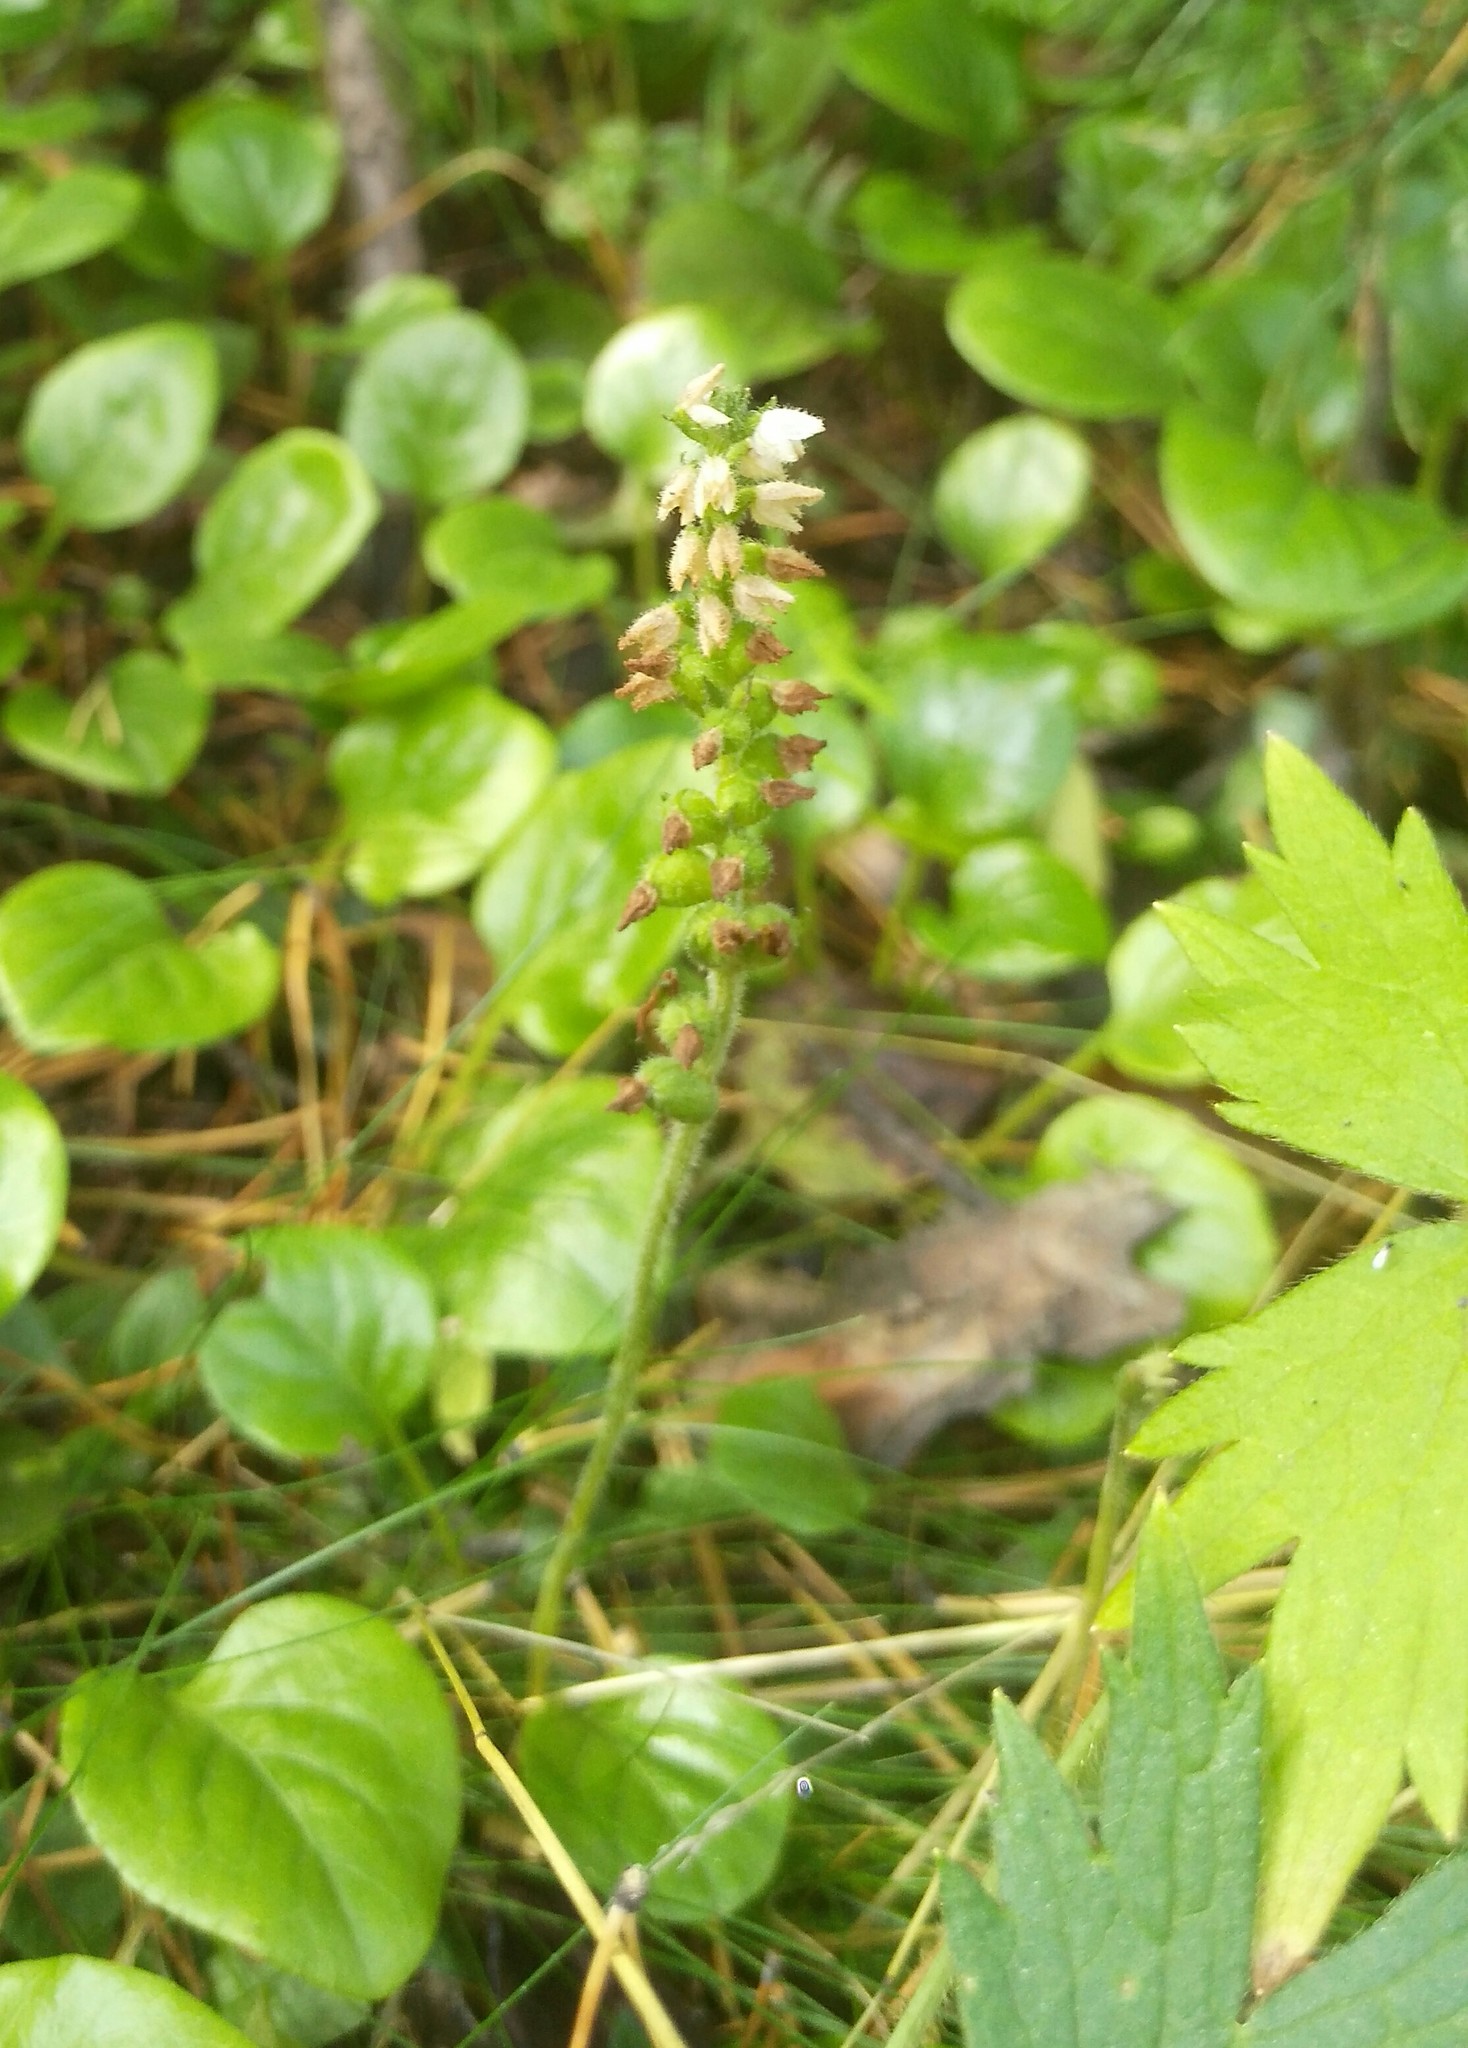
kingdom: Plantae
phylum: Tracheophyta
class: Liliopsida
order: Asparagales
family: Orchidaceae
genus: Goodyera
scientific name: Goodyera repens
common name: Creeping lady's-tresses
